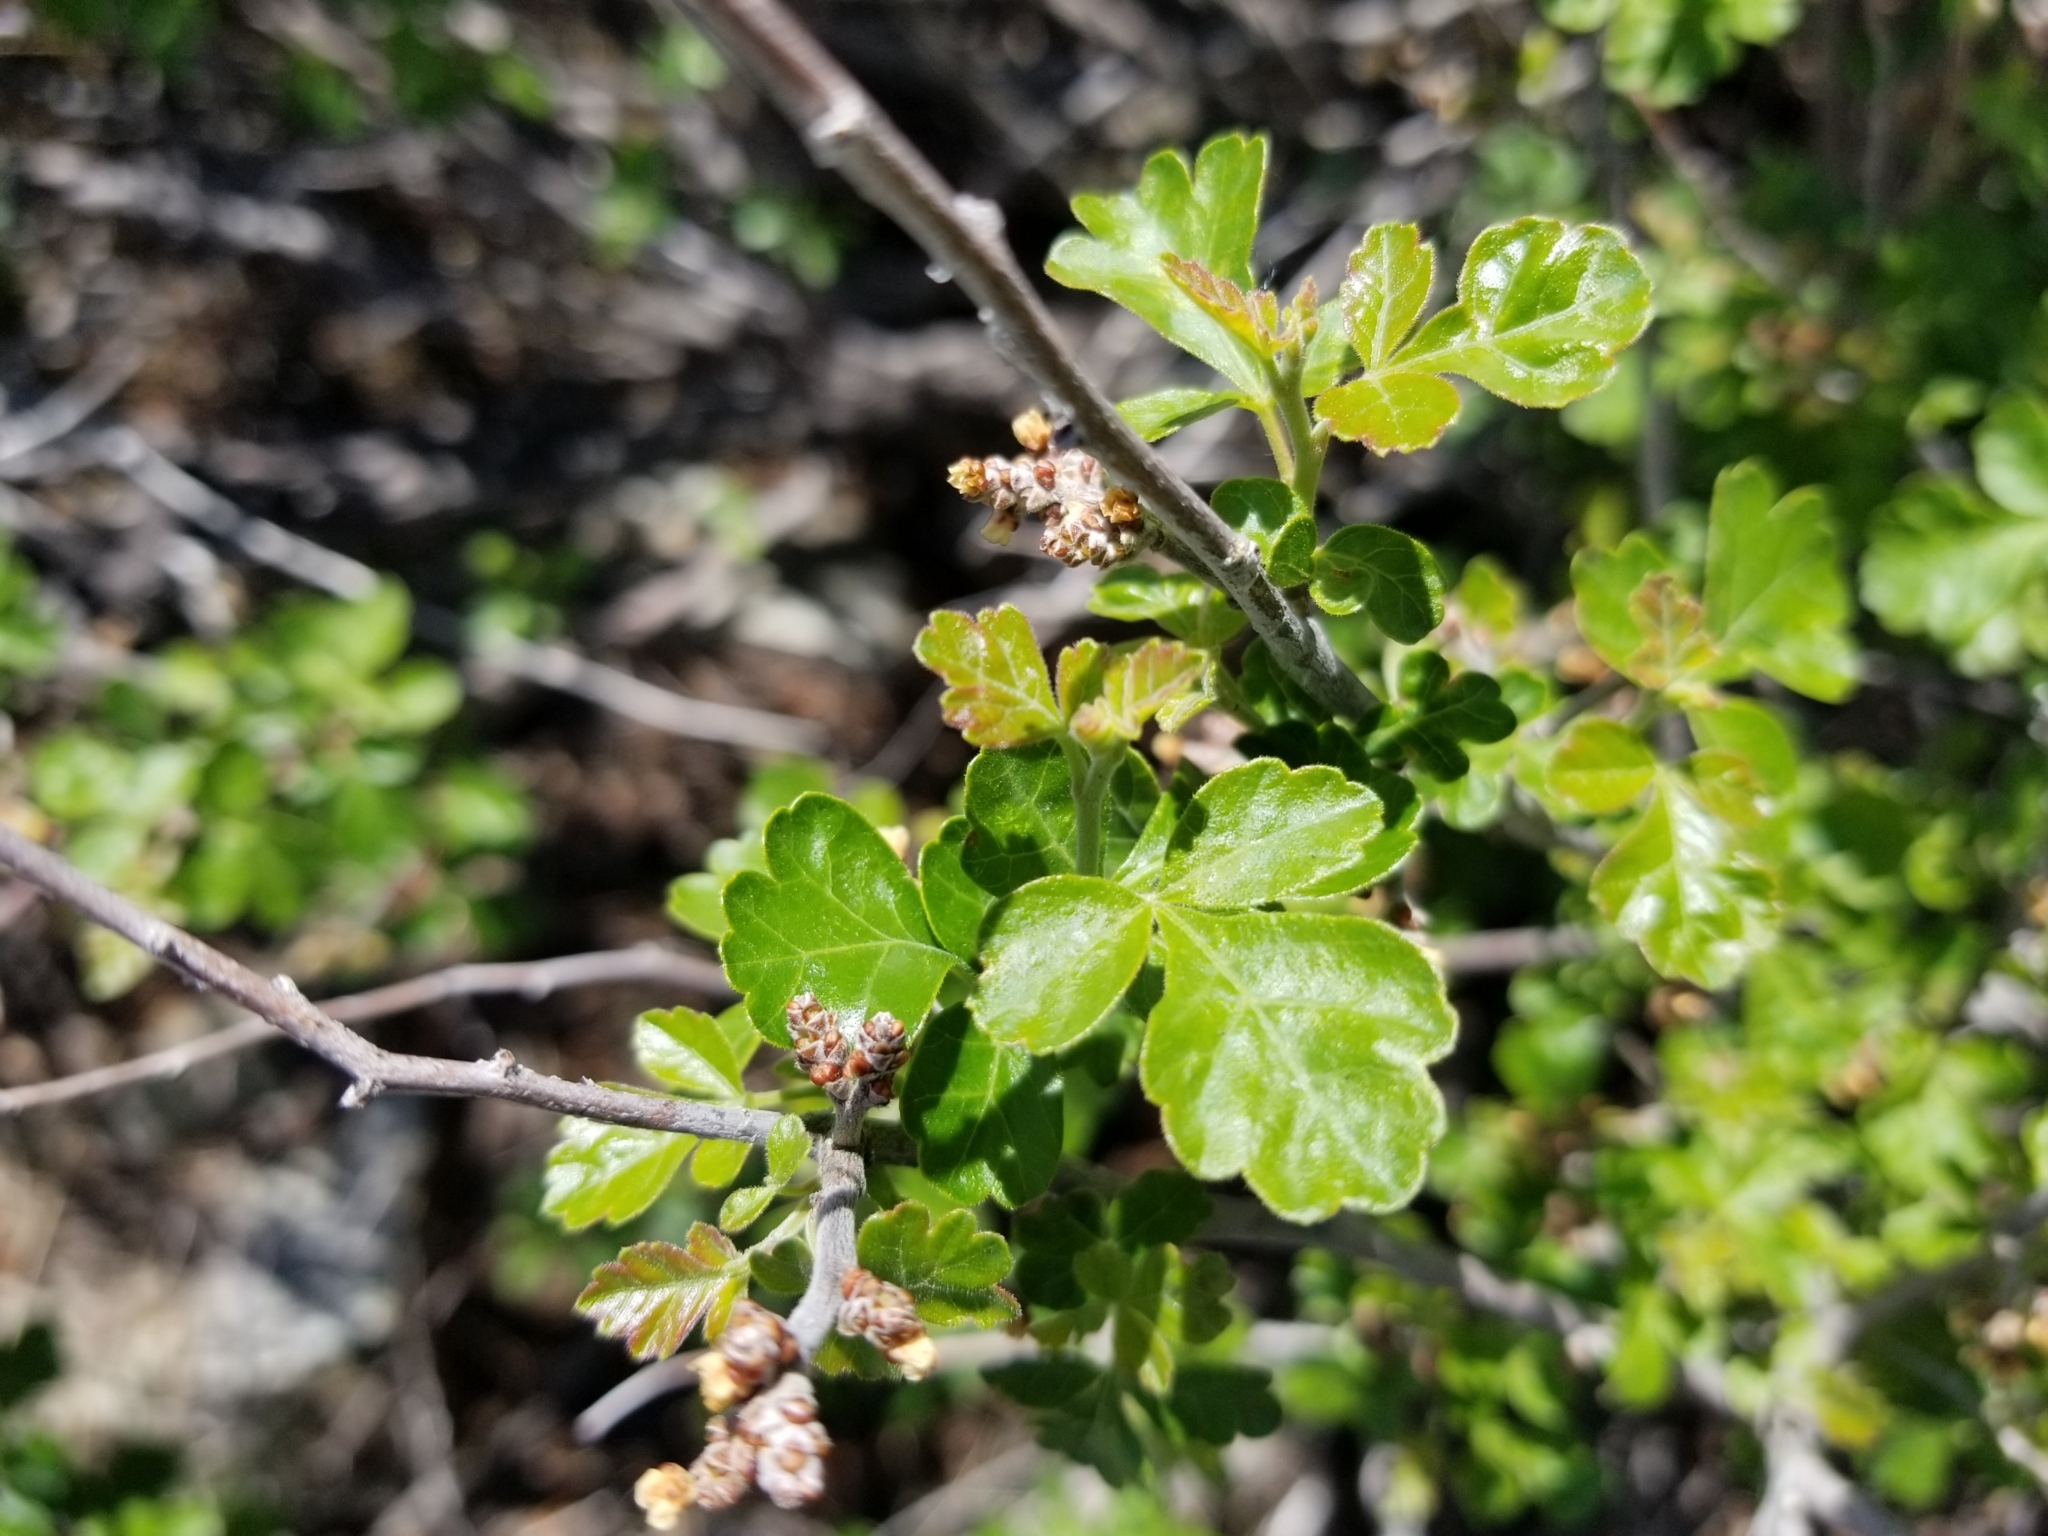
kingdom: Plantae
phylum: Tracheophyta
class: Magnoliopsida
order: Sapindales
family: Anacardiaceae
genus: Rhus
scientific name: Rhus aromatica
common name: Aromatic sumac
